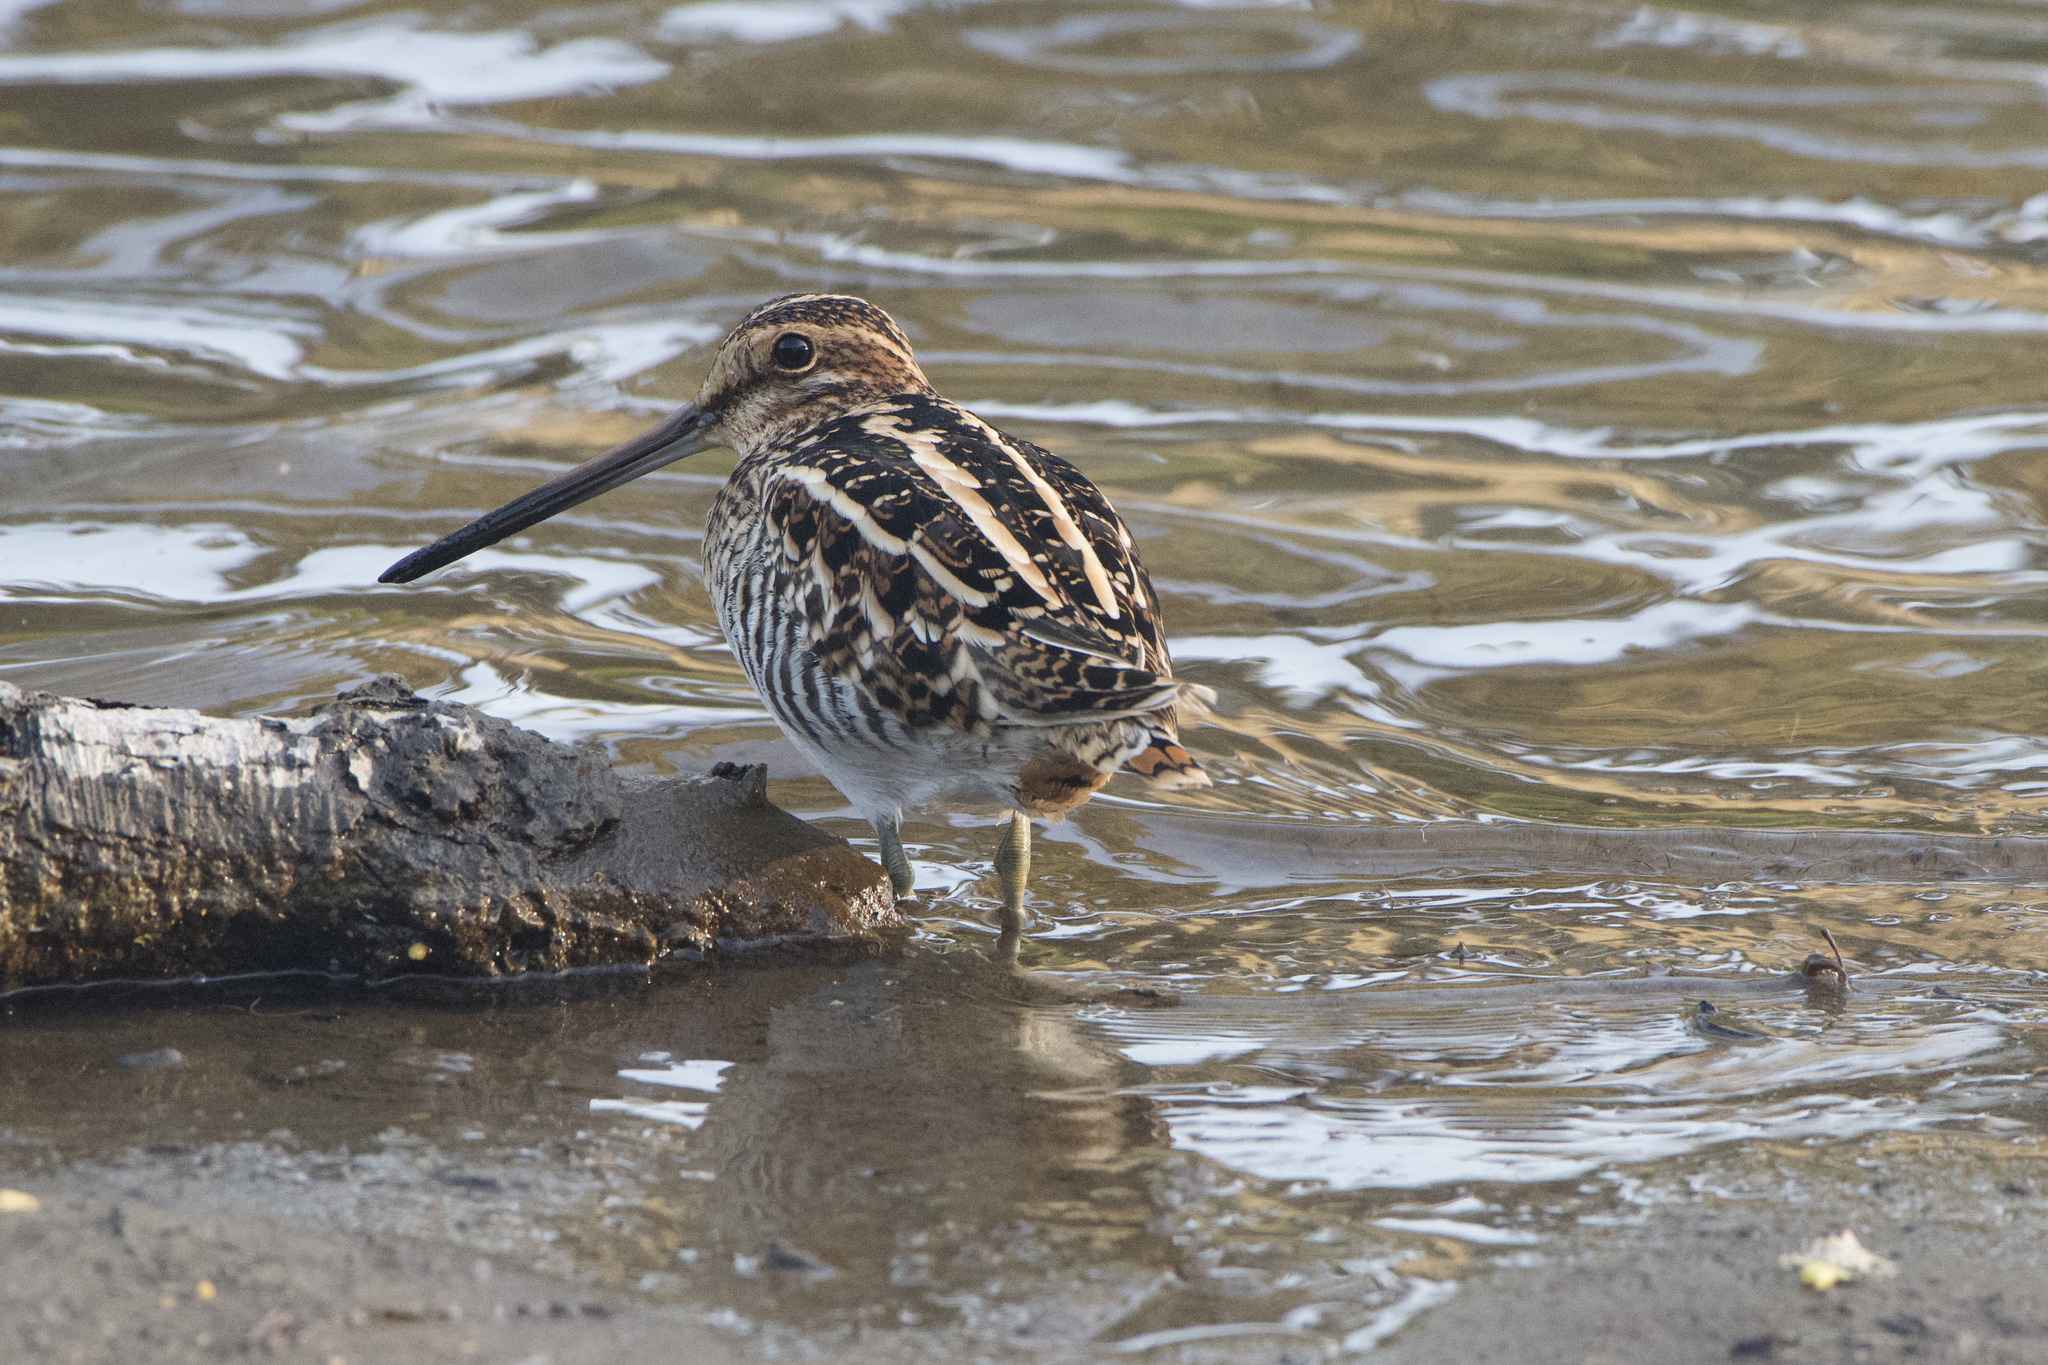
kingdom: Animalia
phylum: Chordata
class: Aves
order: Charadriiformes
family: Scolopacidae
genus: Gallinago
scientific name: Gallinago delicata
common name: Wilson's snipe
